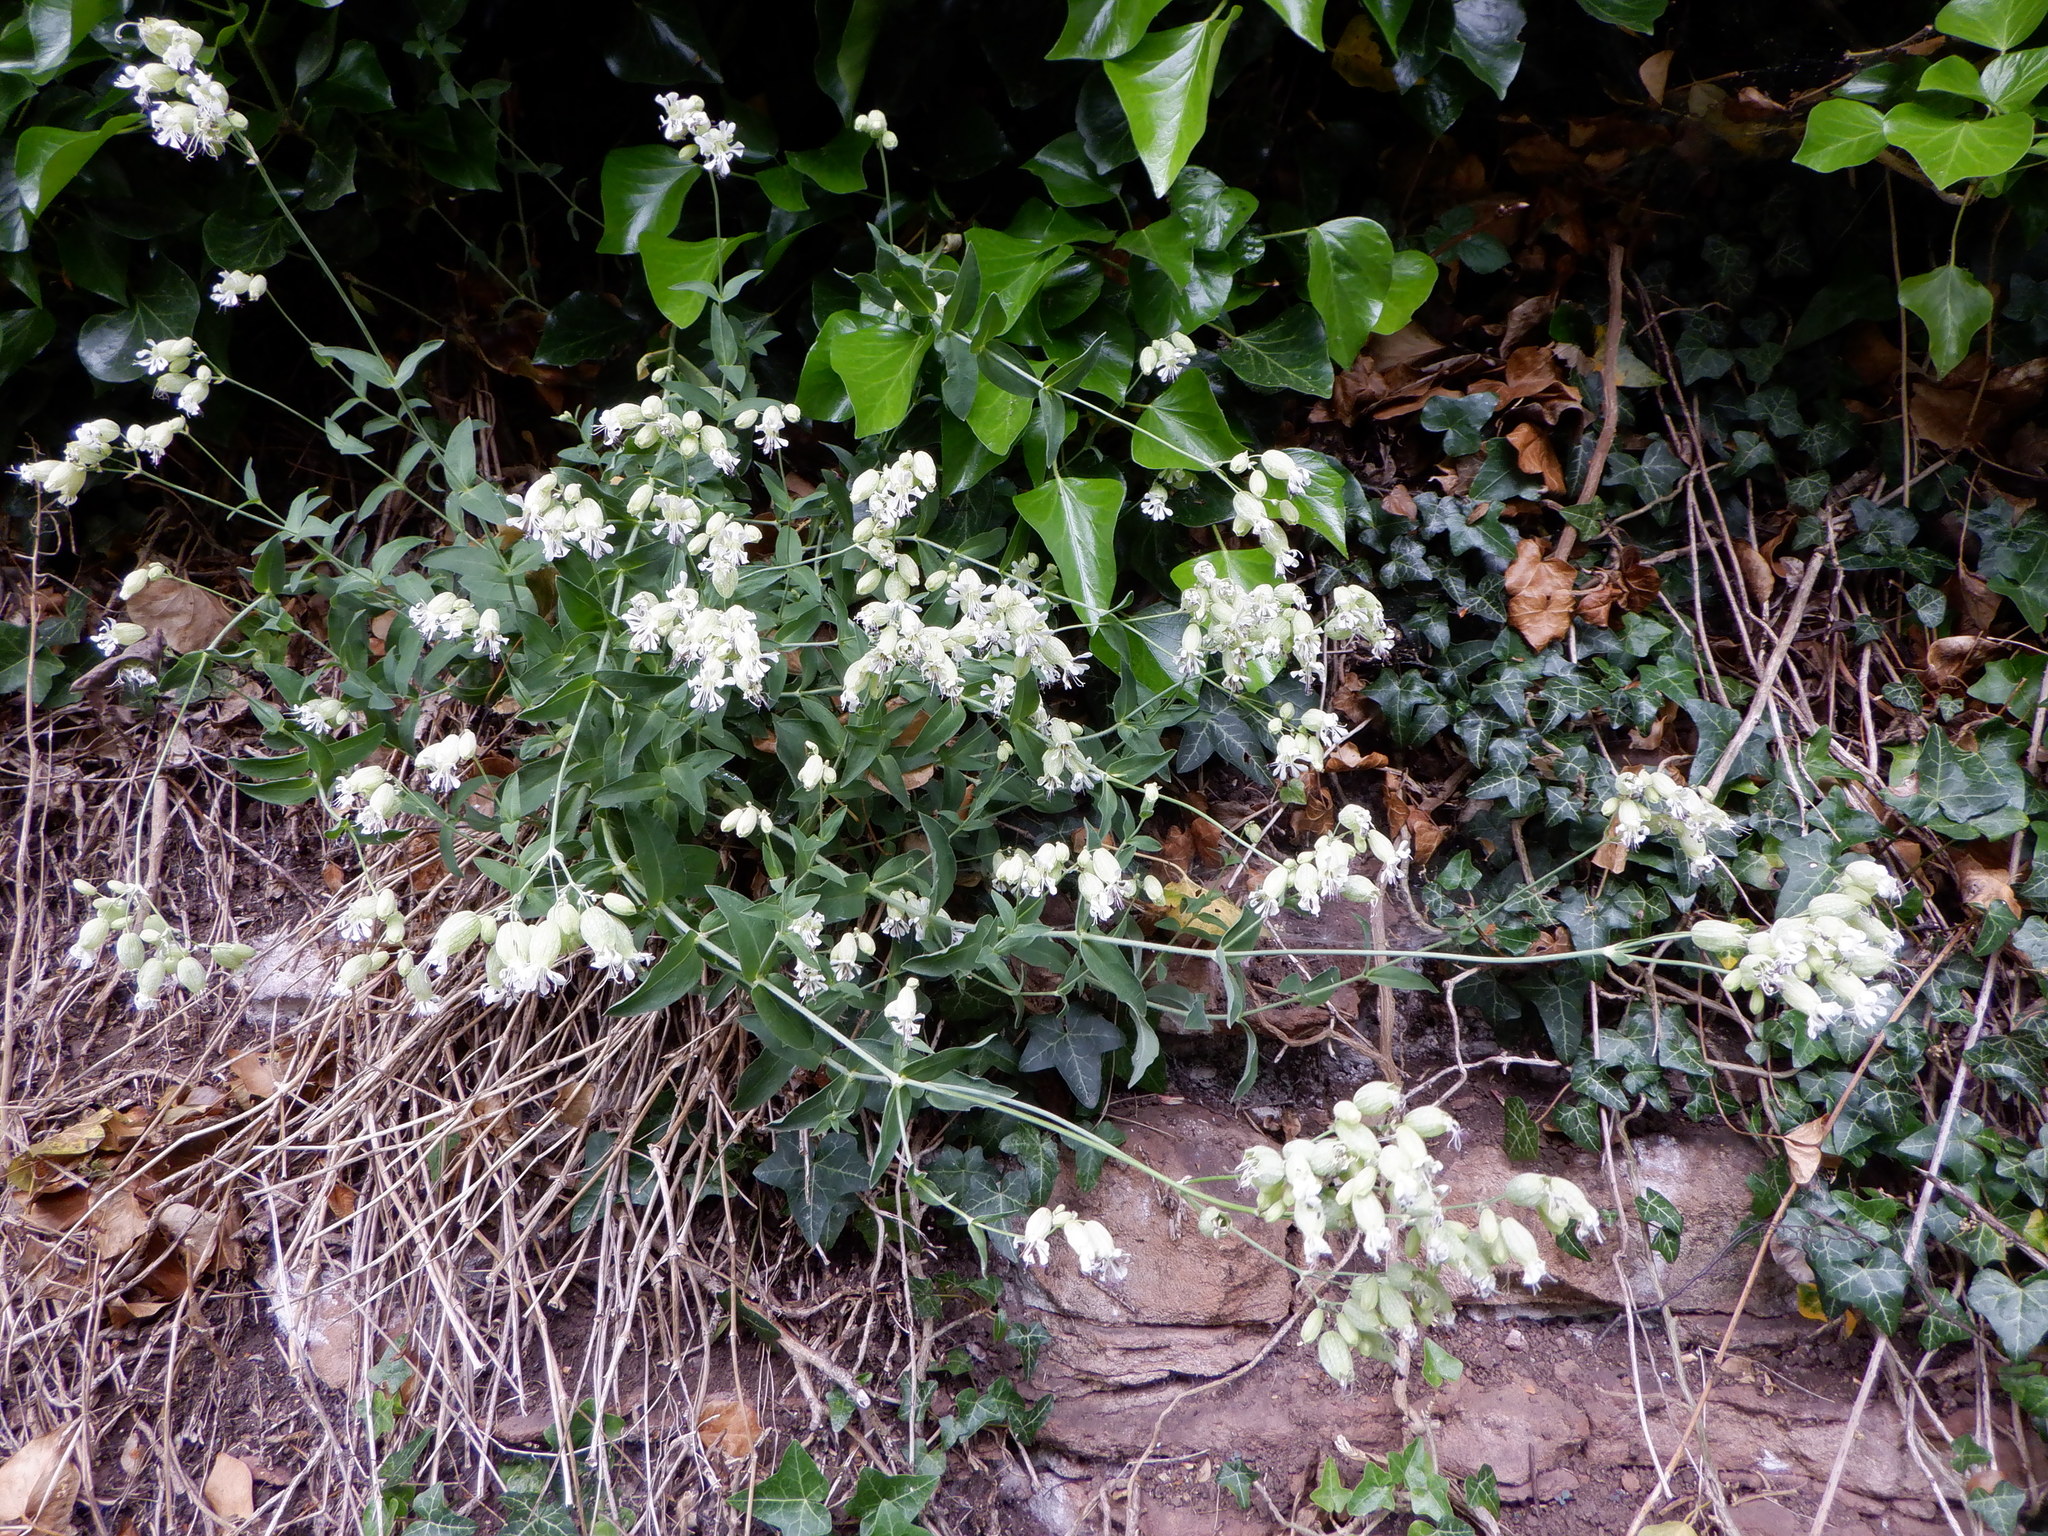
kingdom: Plantae
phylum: Tracheophyta
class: Magnoliopsida
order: Caryophyllales
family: Caryophyllaceae
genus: Silene
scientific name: Silene vulgaris
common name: Bladder campion
